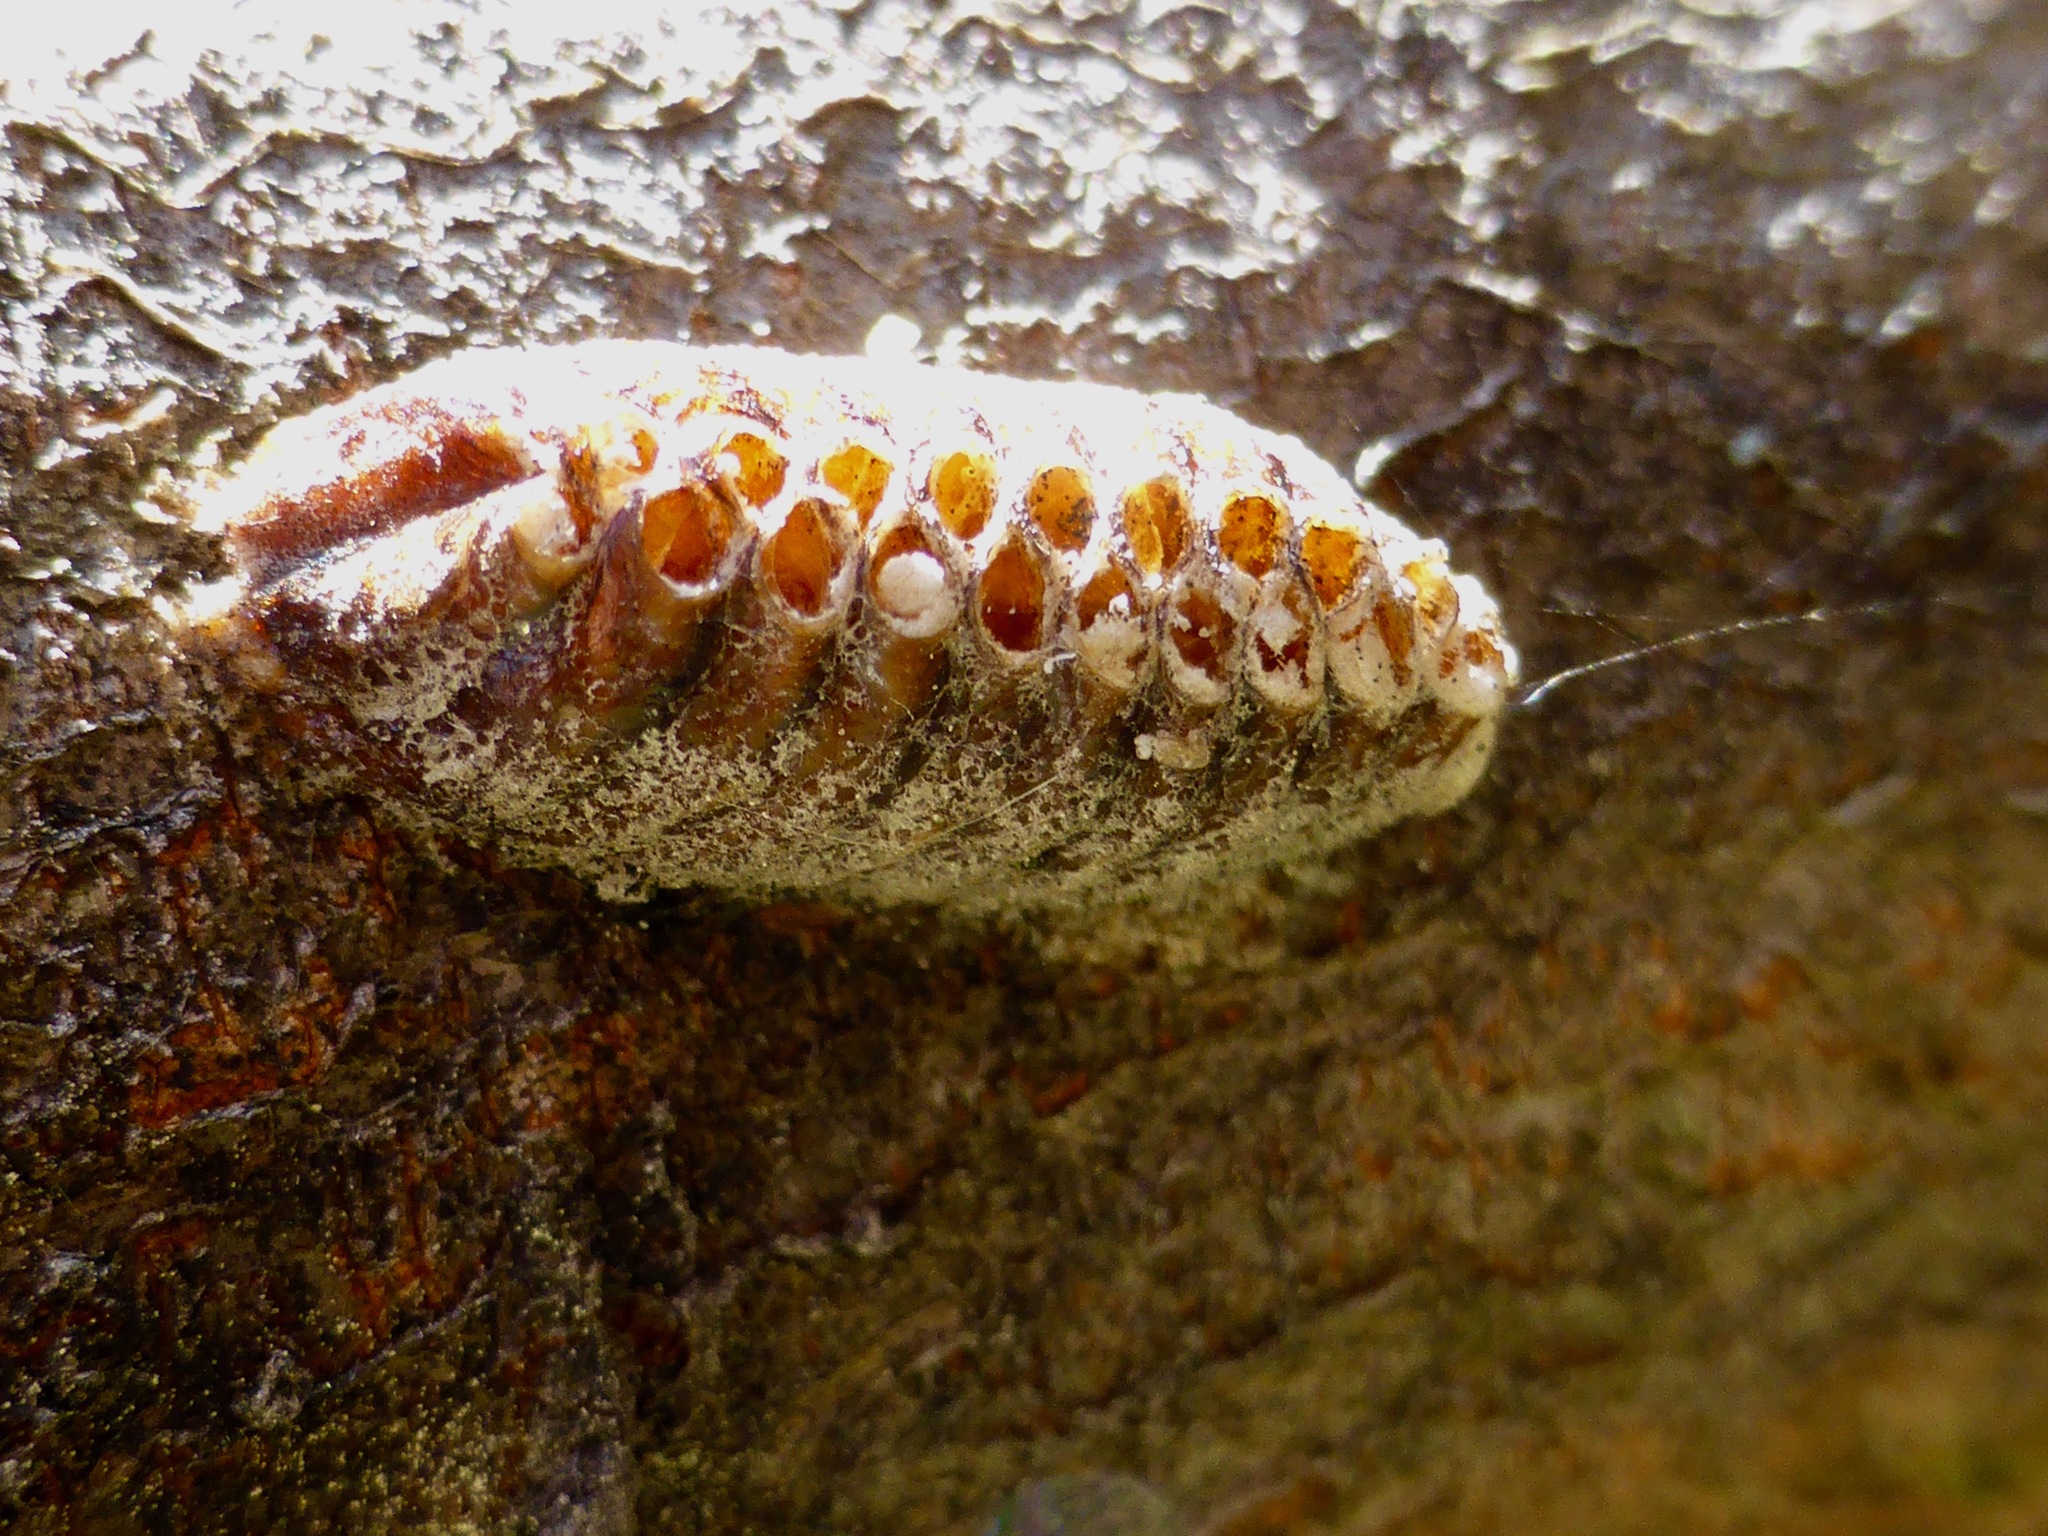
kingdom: Animalia
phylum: Arthropoda
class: Insecta
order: Mantodea
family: Mantidae
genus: Orthodera
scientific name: Orthodera novaezealandiae
